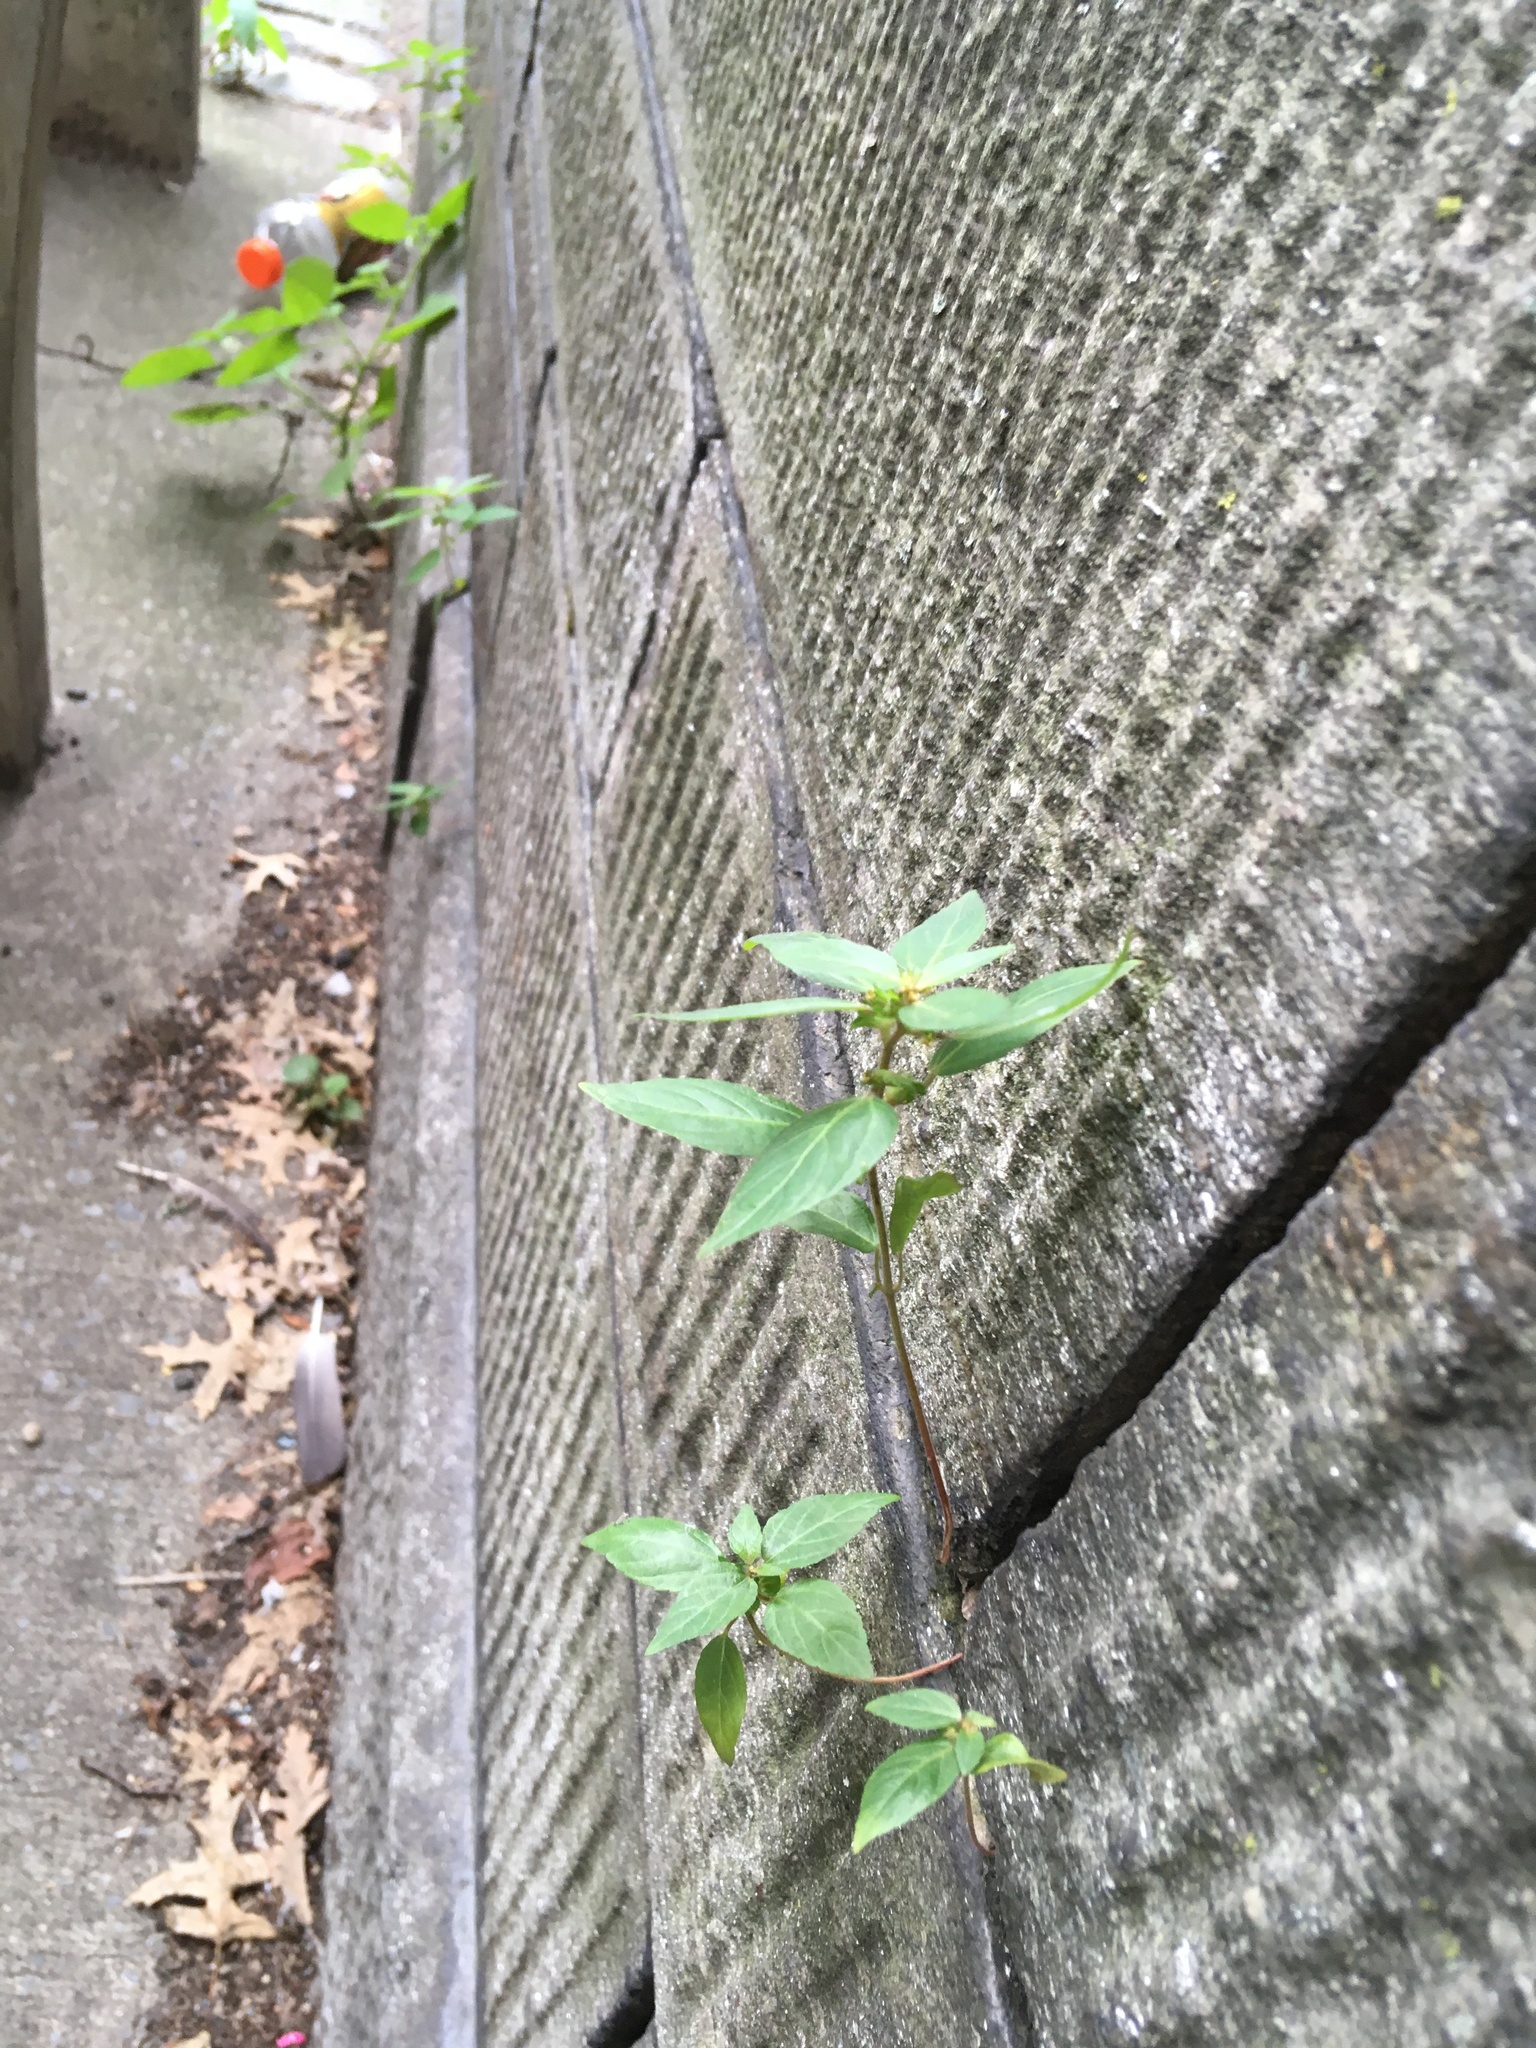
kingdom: Plantae
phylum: Tracheophyta
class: Magnoliopsida
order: Malpighiales
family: Euphorbiaceae
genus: Acalypha
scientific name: Acalypha rhomboidea
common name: Rhombic copperleaf
